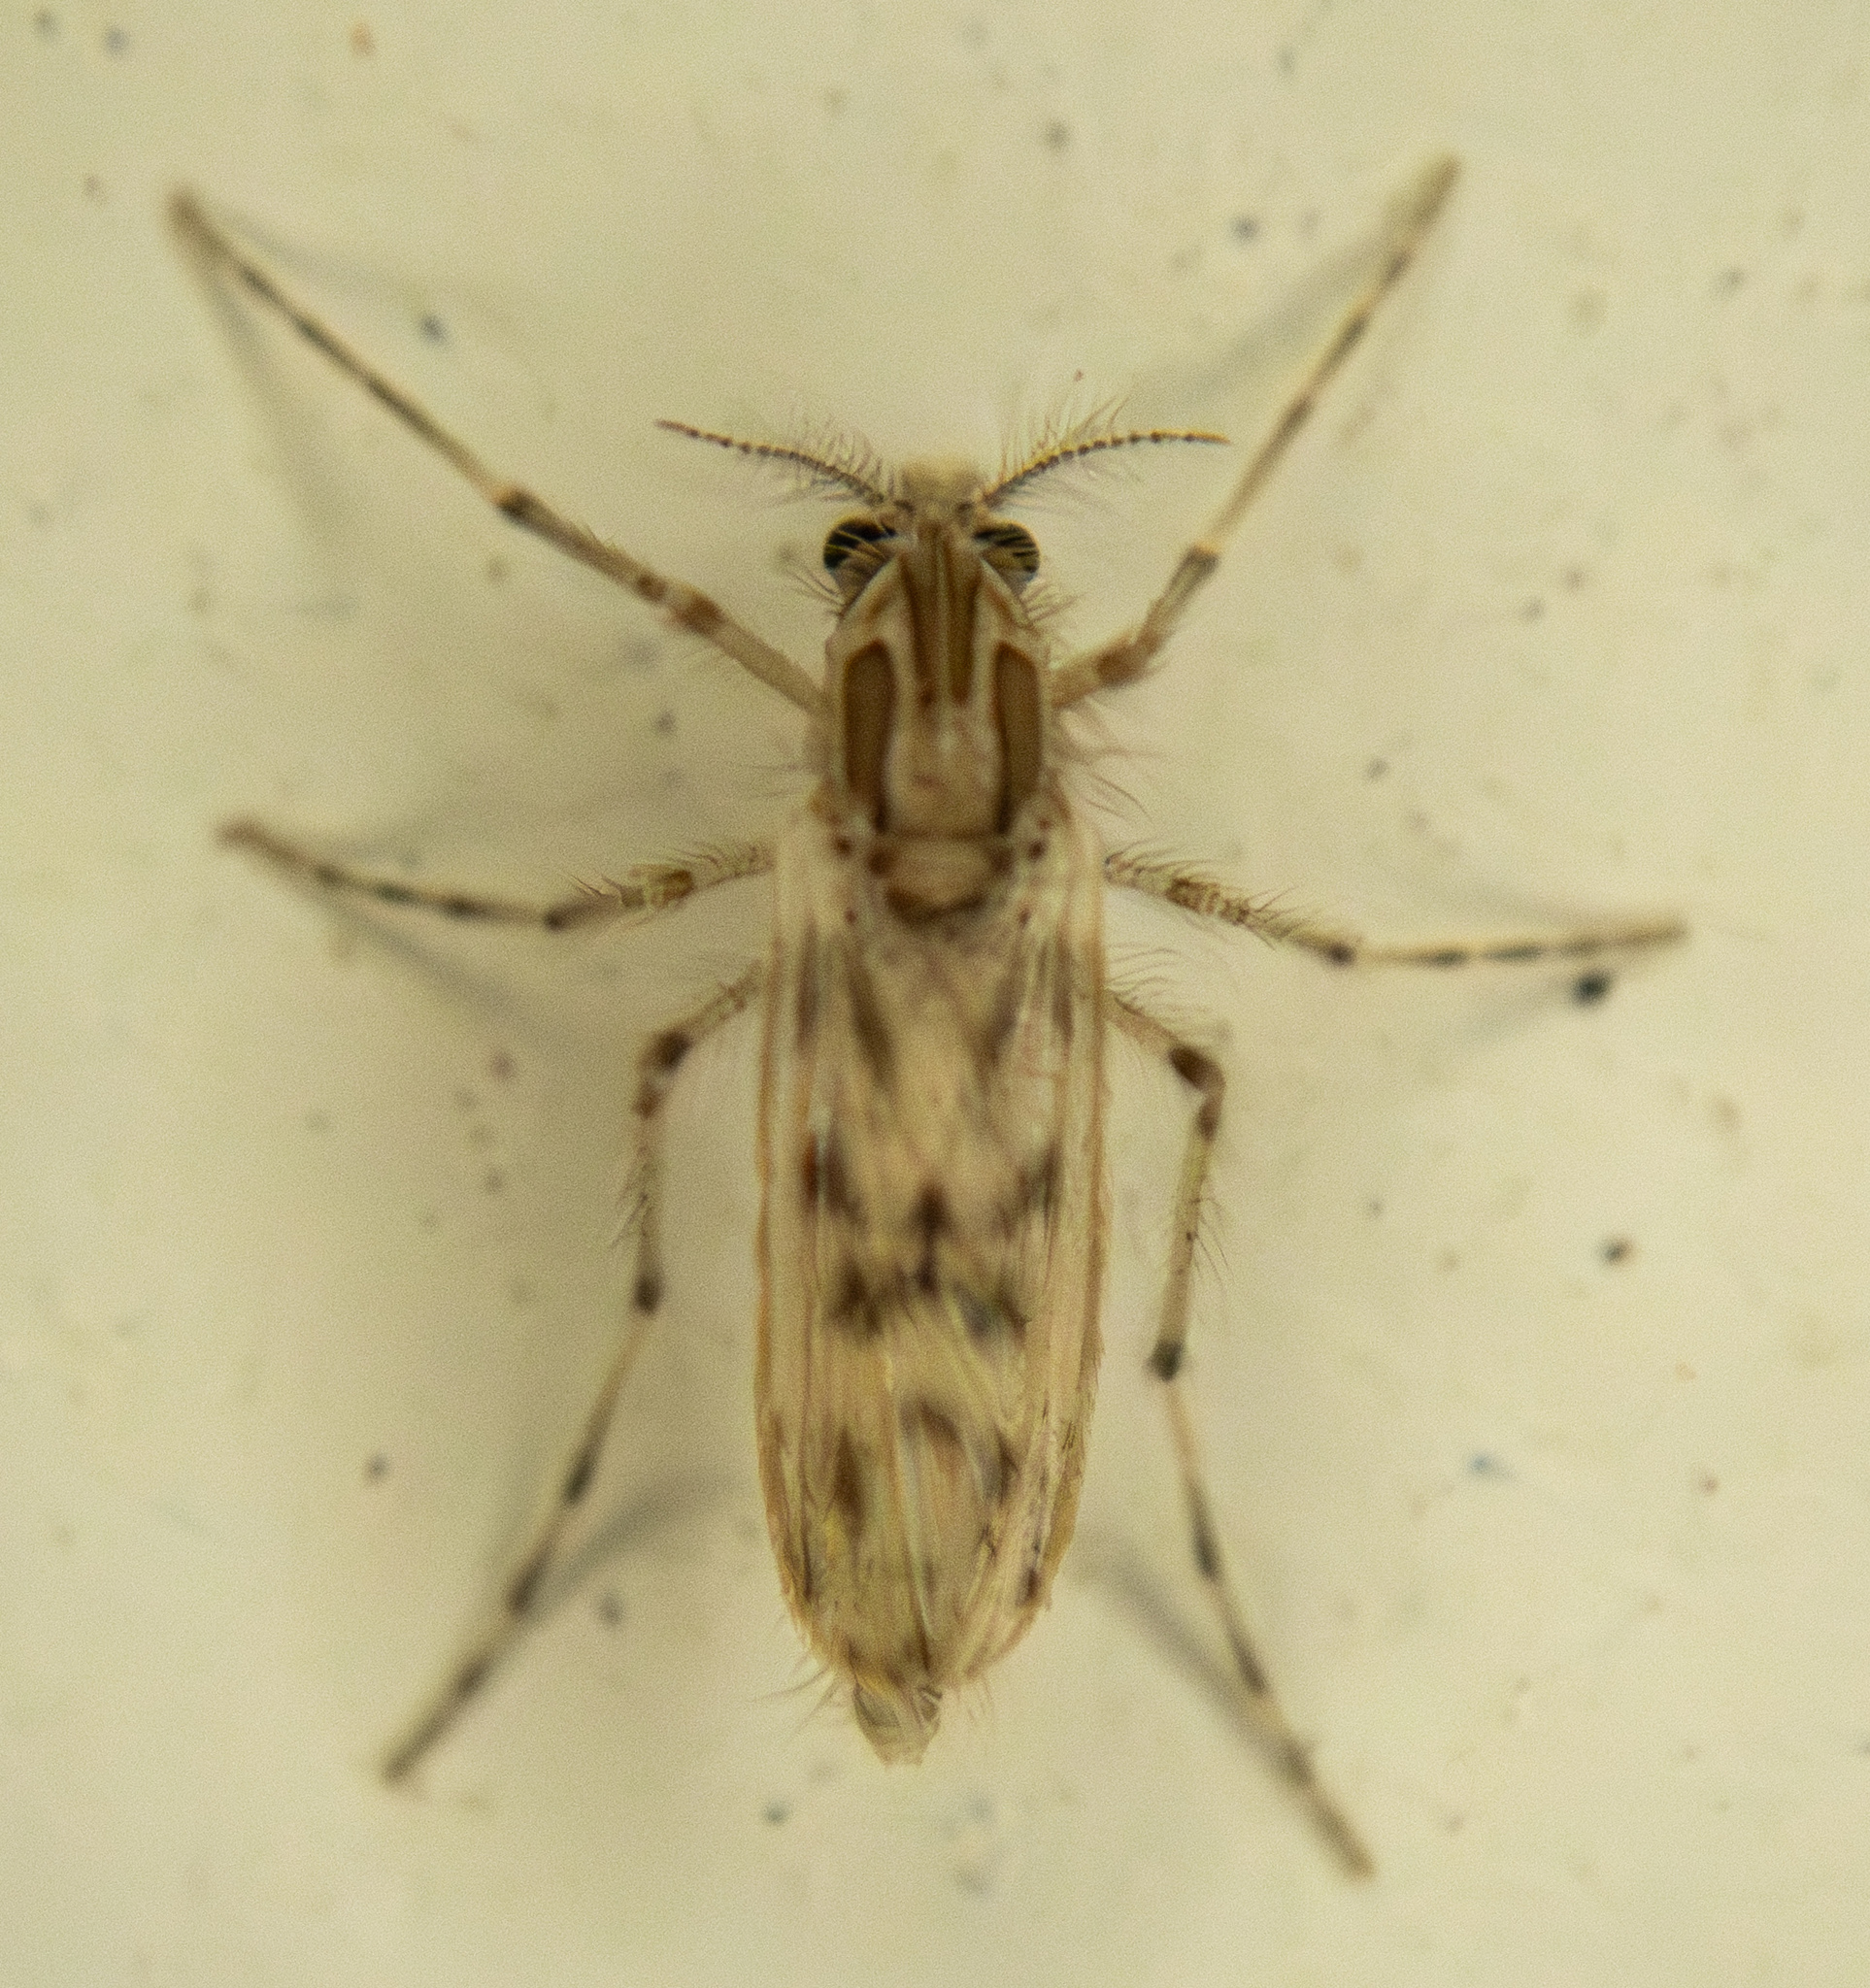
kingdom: Animalia
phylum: Arthropoda
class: Insecta
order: Diptera
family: Chaoboridae
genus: Chaoborus
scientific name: Chaoborus punctipennis
